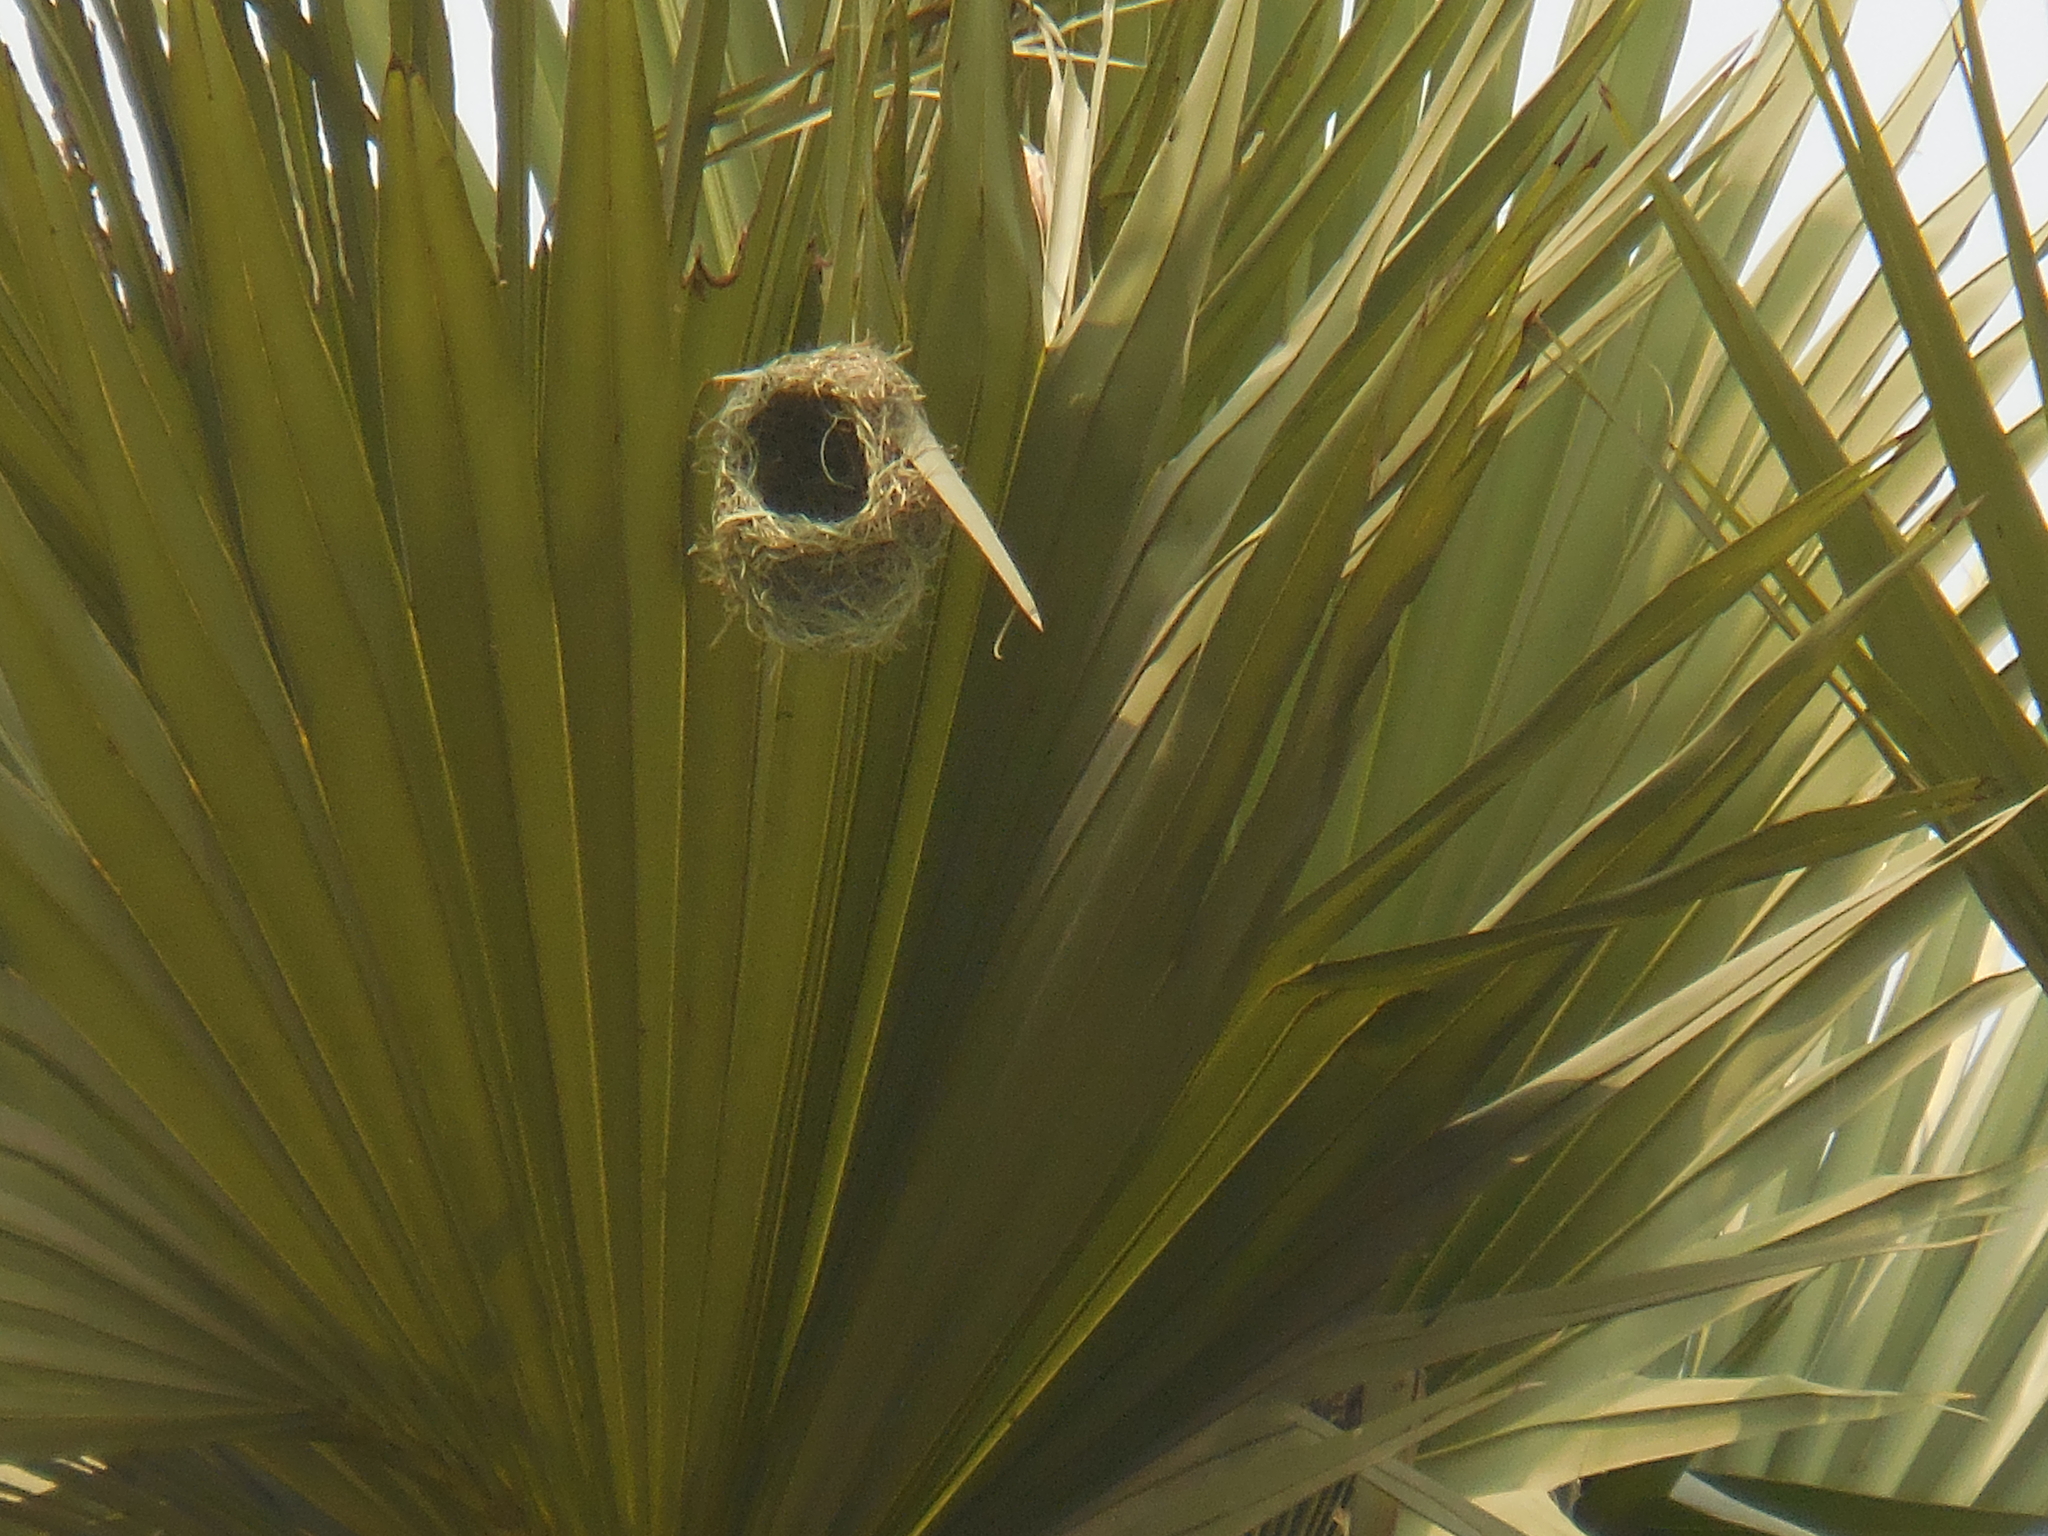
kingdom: Animalia
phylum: Chordata
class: Aves
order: Passeriformes
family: Ploceidae
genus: Ploceus
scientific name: Ploceus philippinus
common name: Baya weaver
